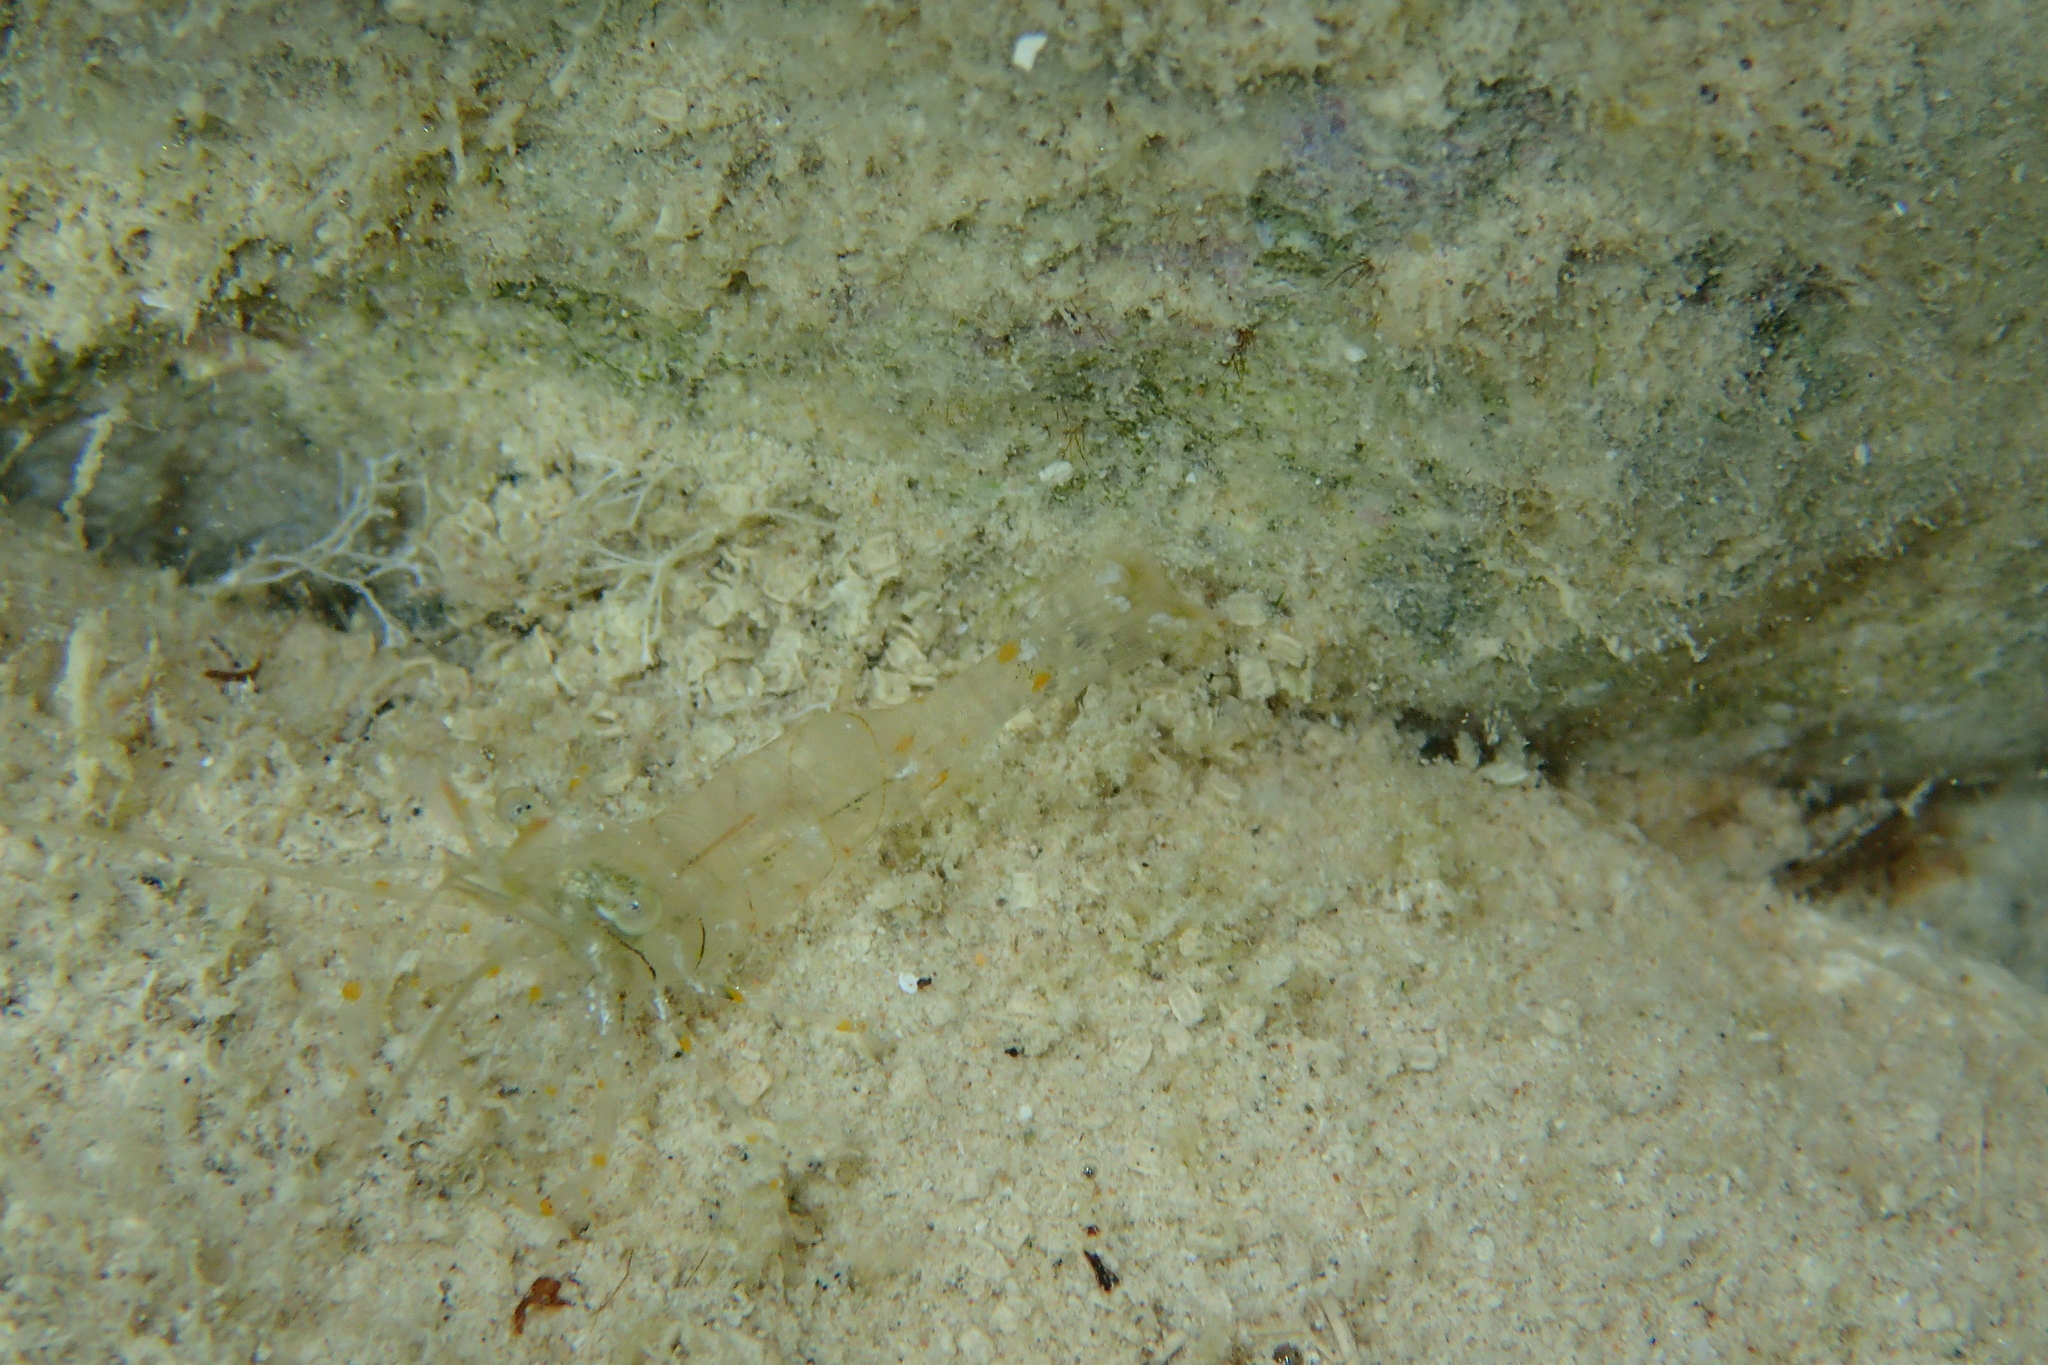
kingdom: Animalia
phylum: Arthropoda
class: Malacostraca
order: Decapoda
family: Palaemonidae
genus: Palaemon
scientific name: Palaemon elegans
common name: Grass prawm
